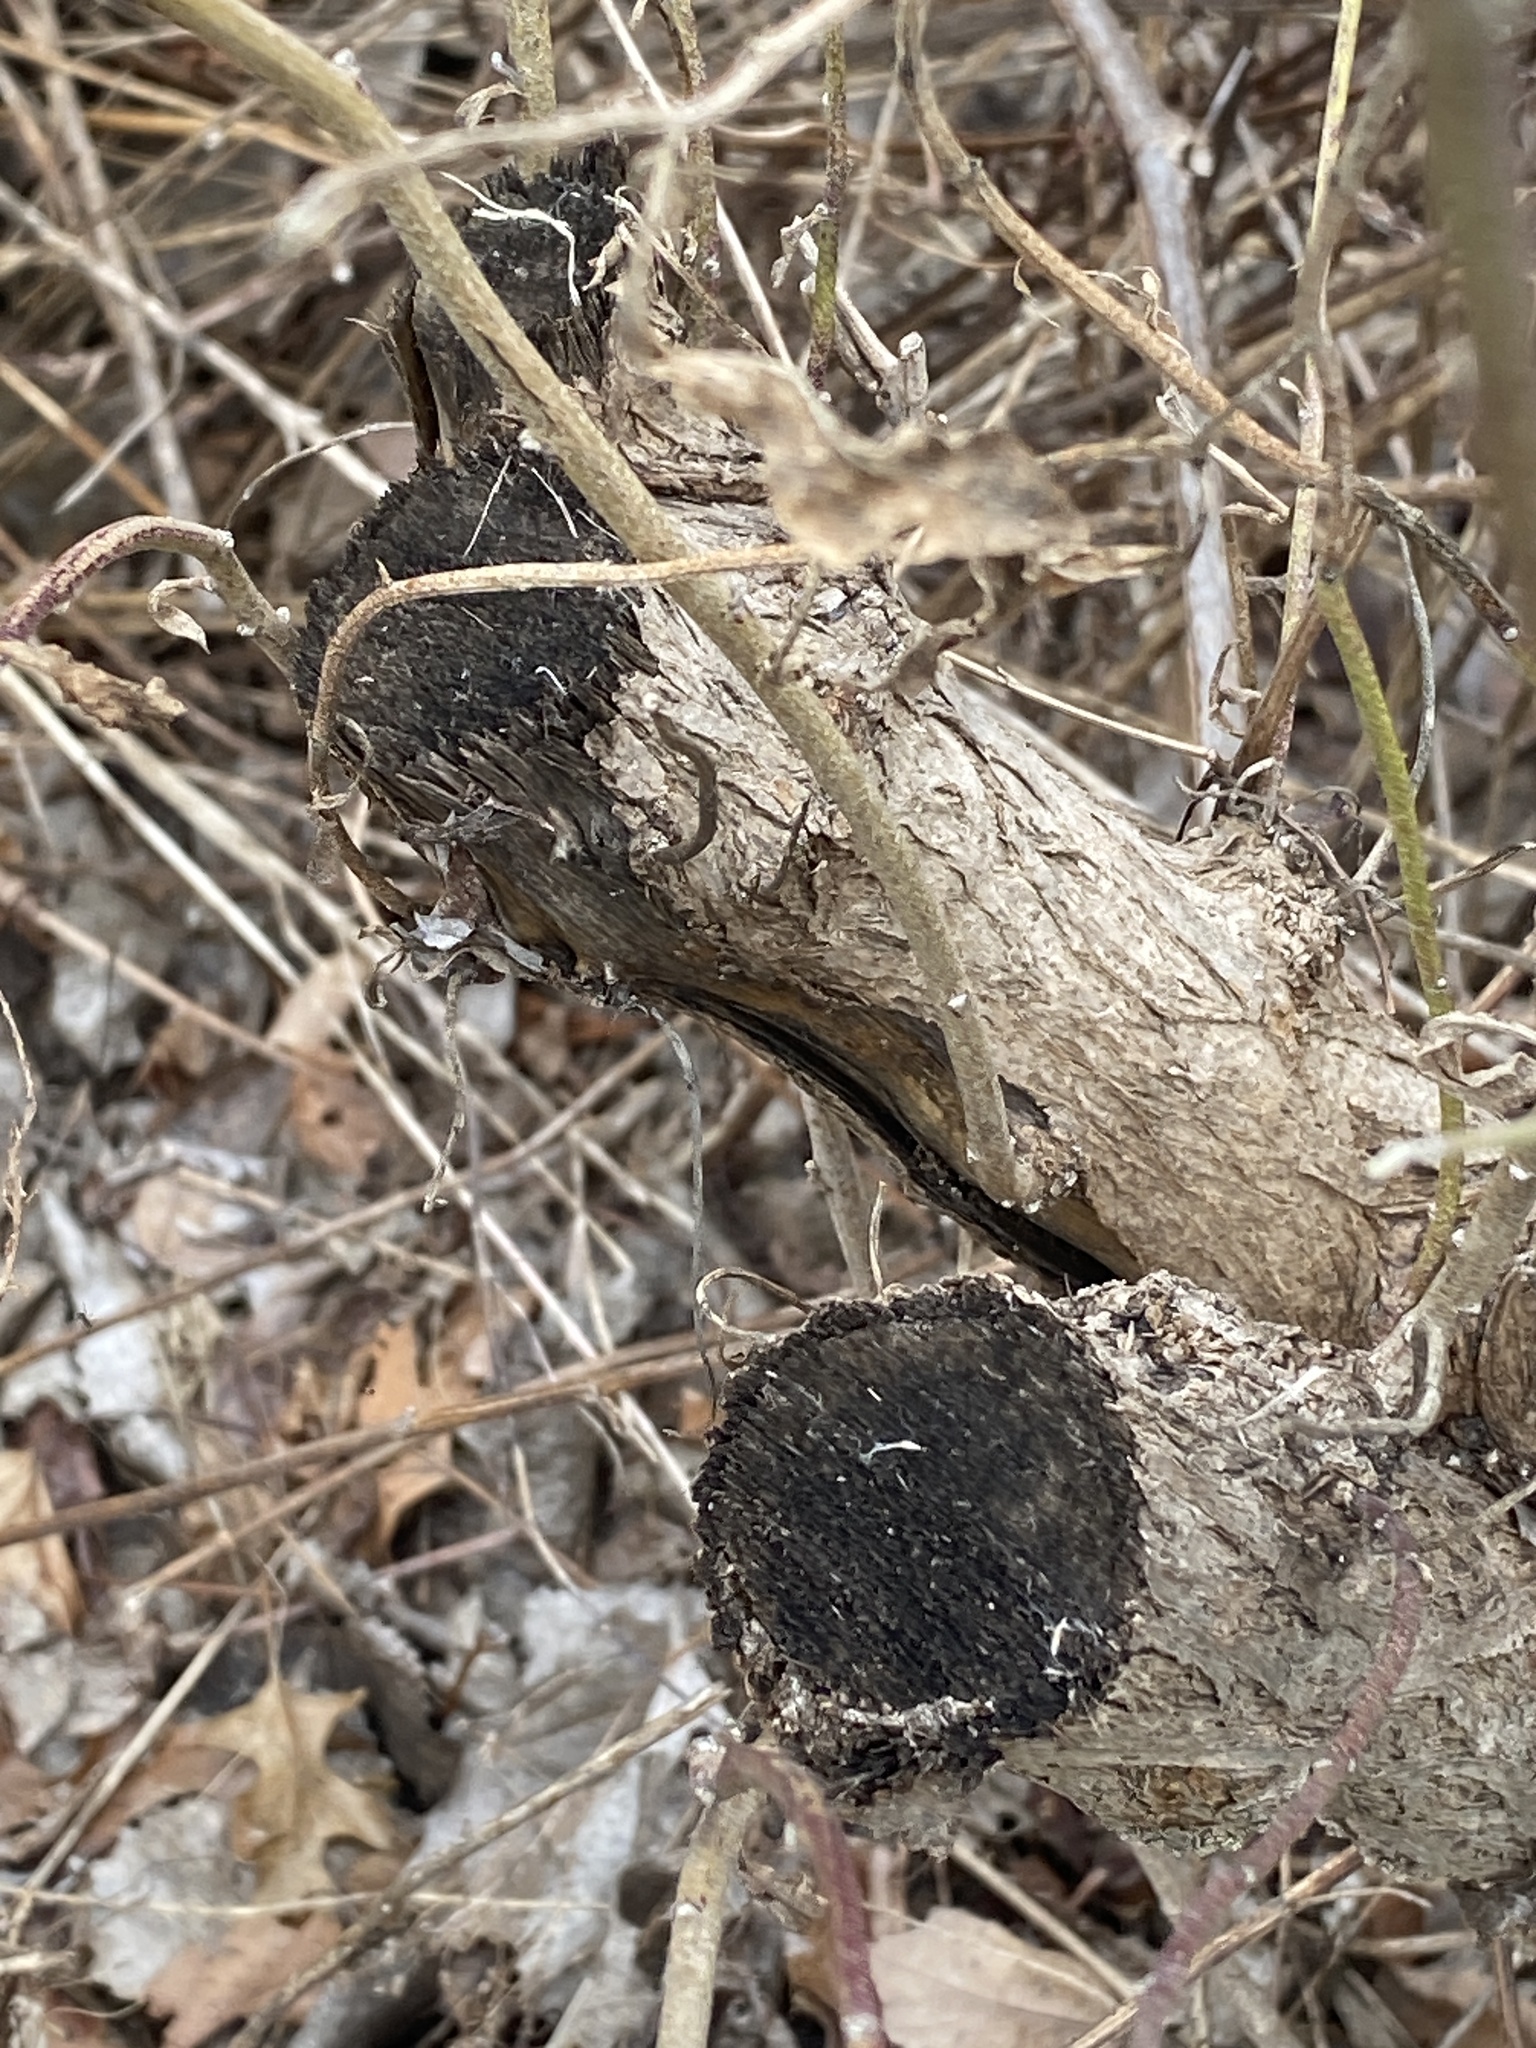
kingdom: Plantae
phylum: Tracheophyta
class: Magnoliopsida
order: Asterales
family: Asteraceae
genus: Baccharis
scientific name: Baccharis halimifolia
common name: Eastern baccharis
